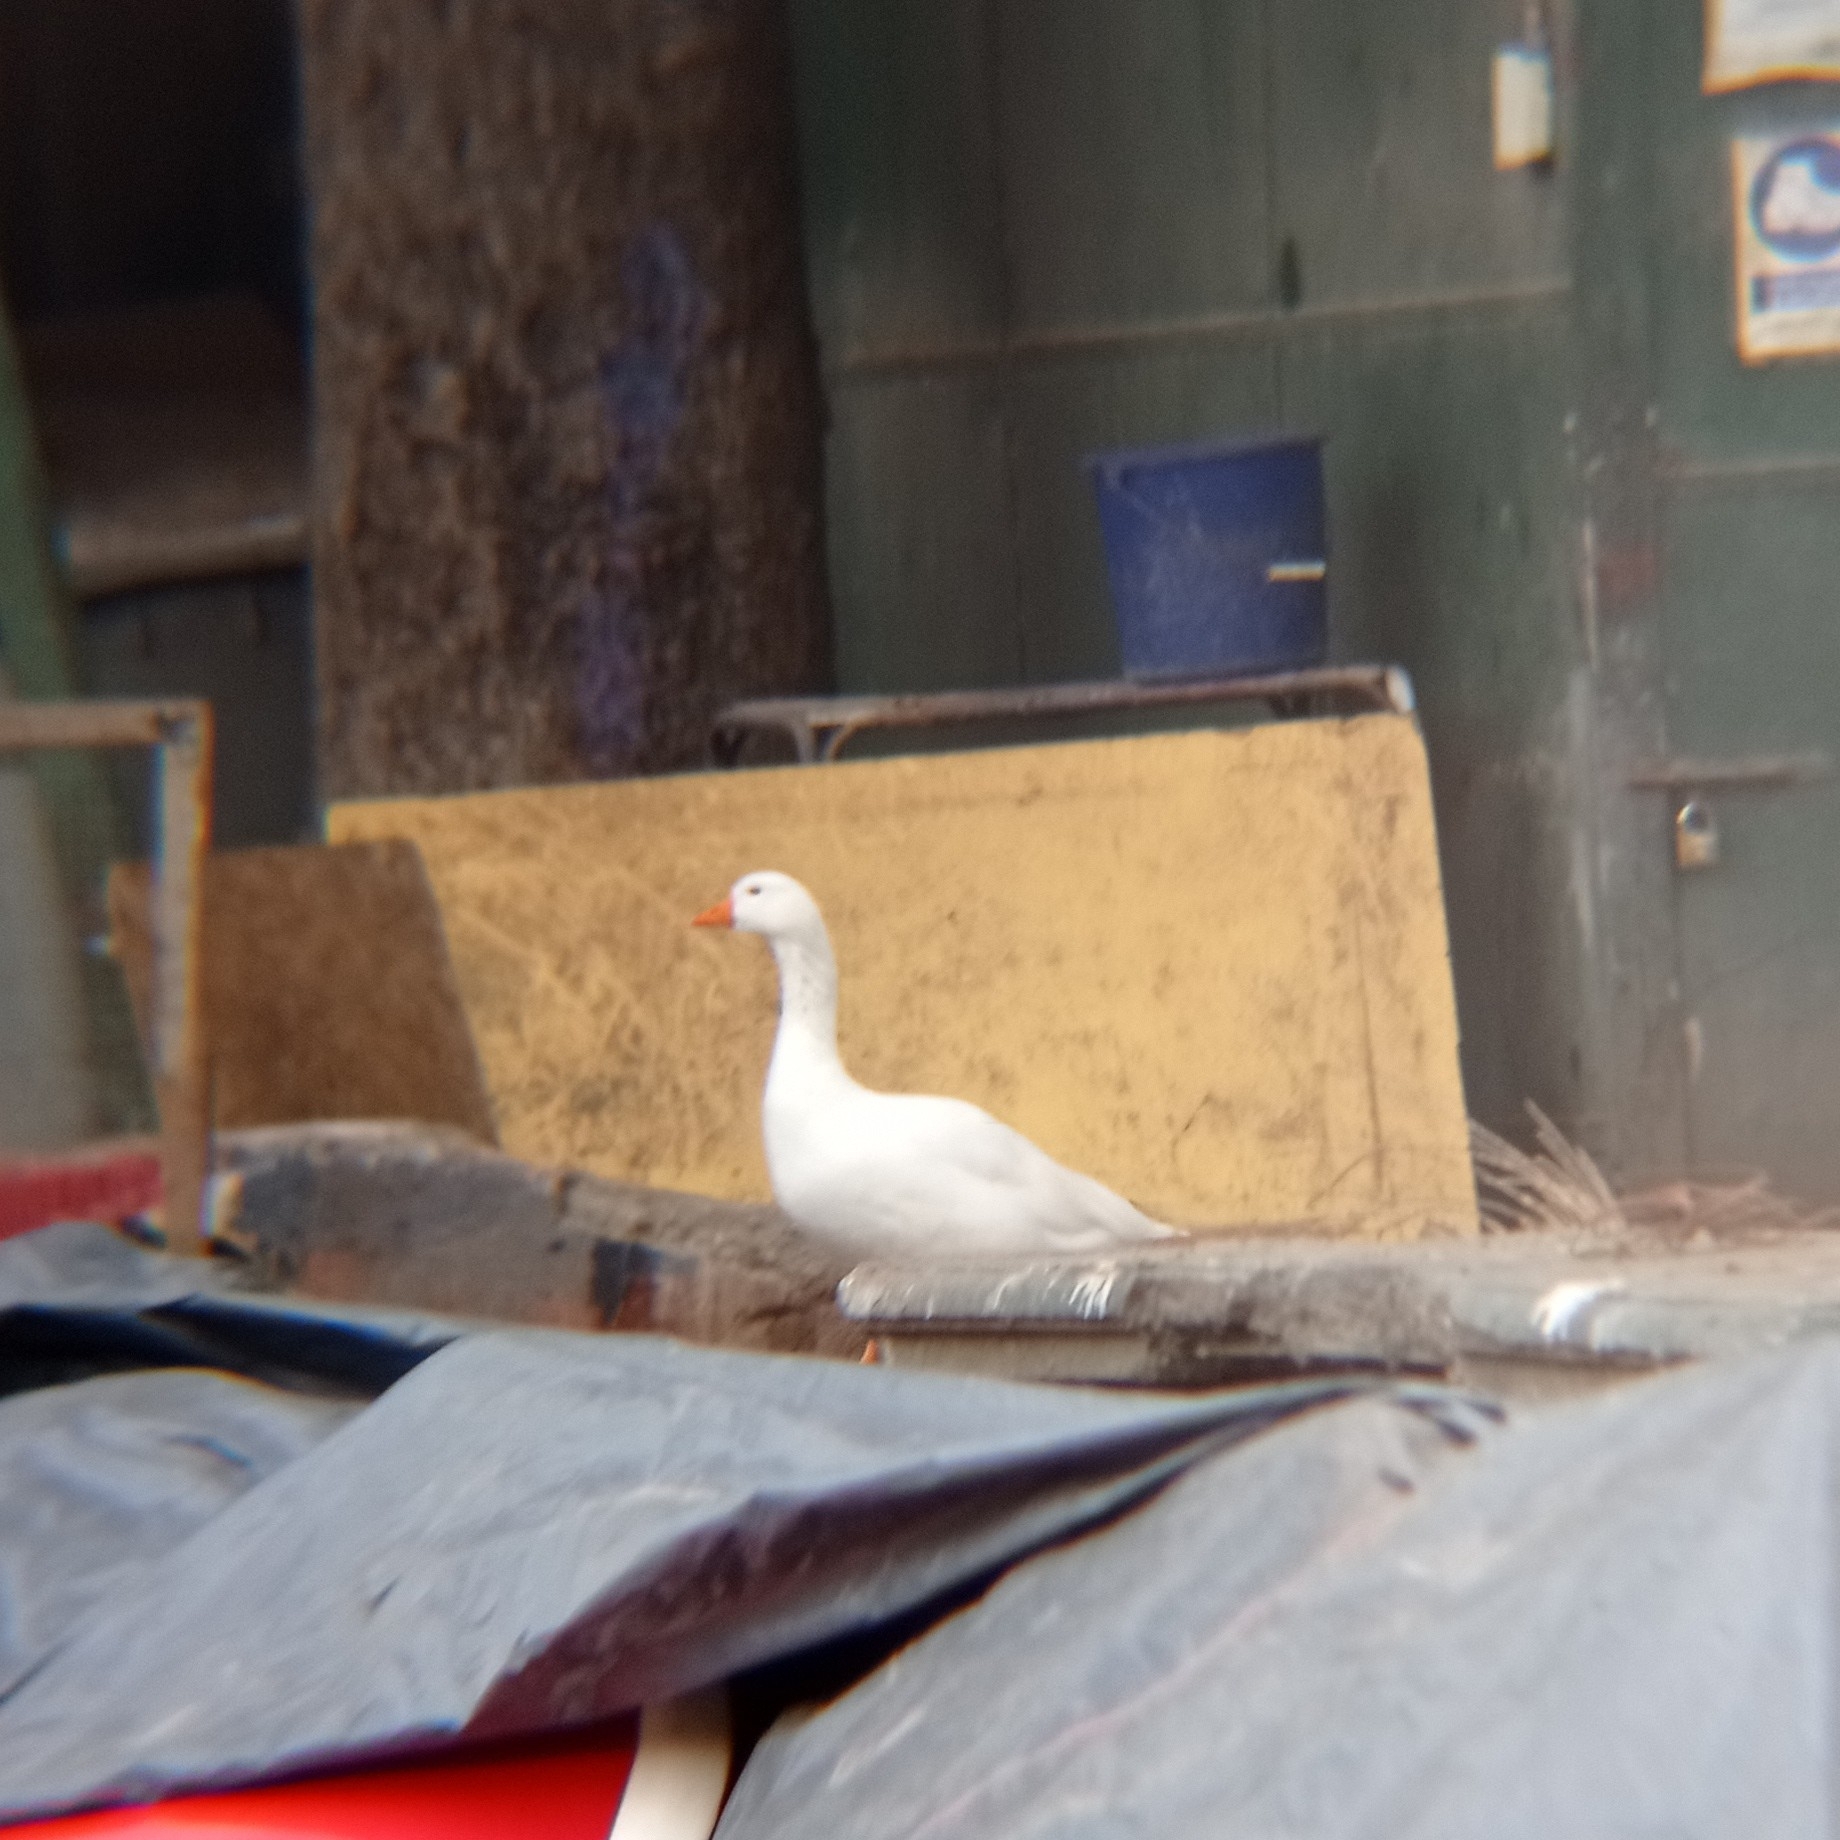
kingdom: Animalia
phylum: Chordata
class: Aves
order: Anseriformes
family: Anatidae
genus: Anser
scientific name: Anser anser
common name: Greylag goose
